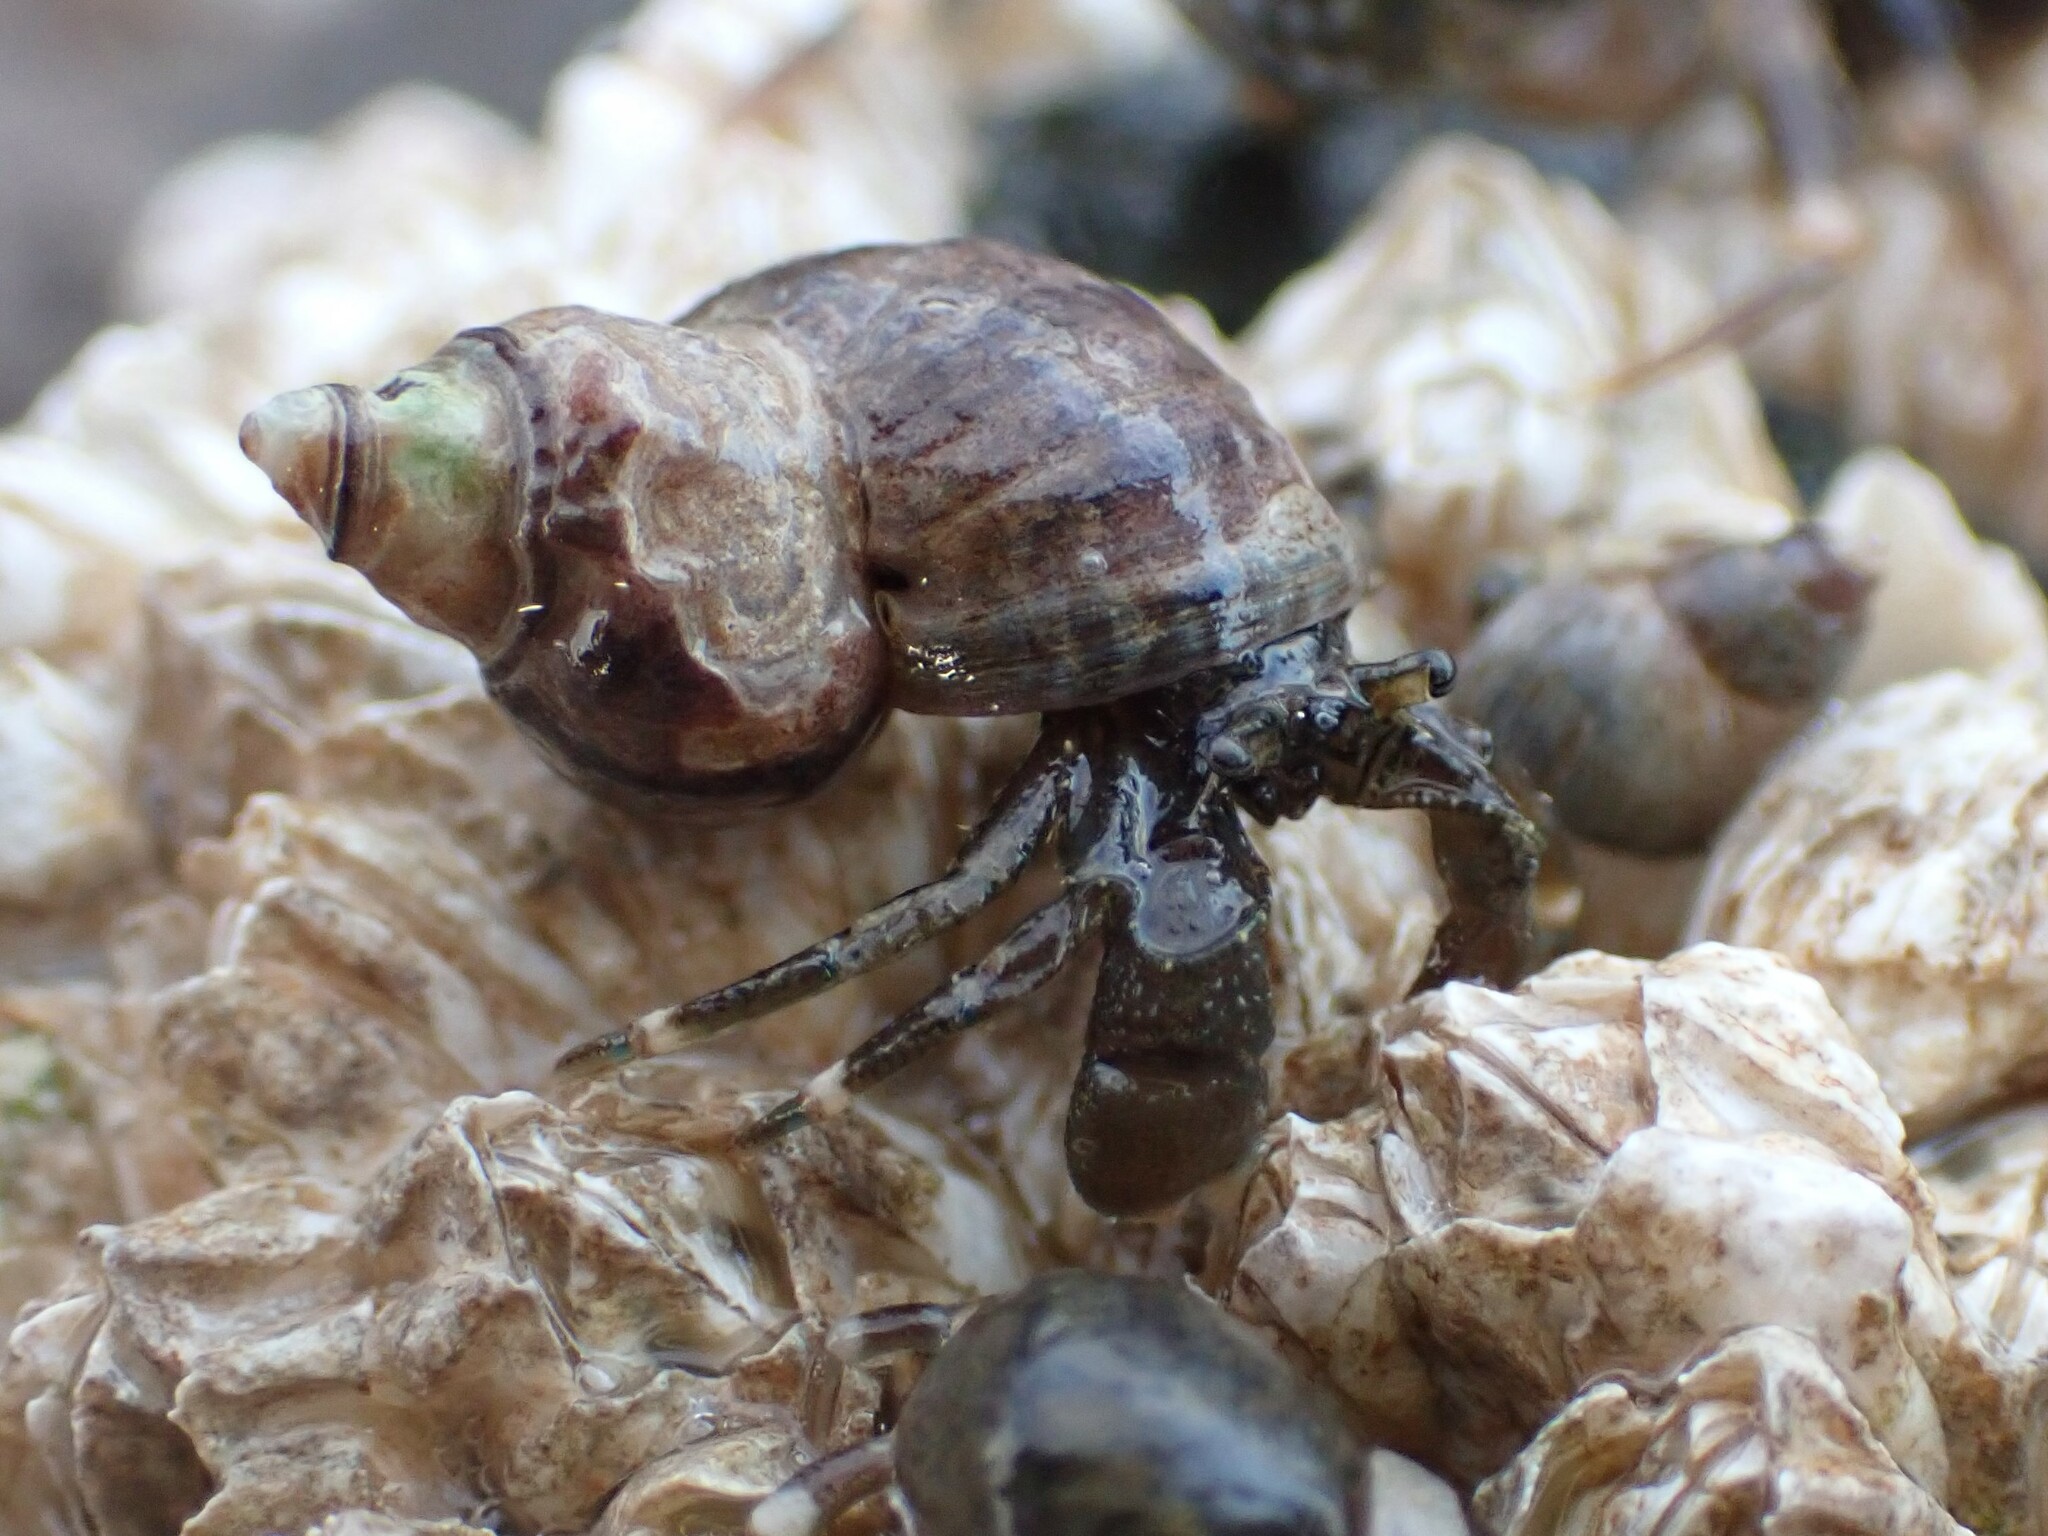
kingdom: Animalia
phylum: Arthropoda
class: Malacostraca
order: Decapoda
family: Paguridae
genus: Pagurus
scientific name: Pagurus hirsutiusculus
